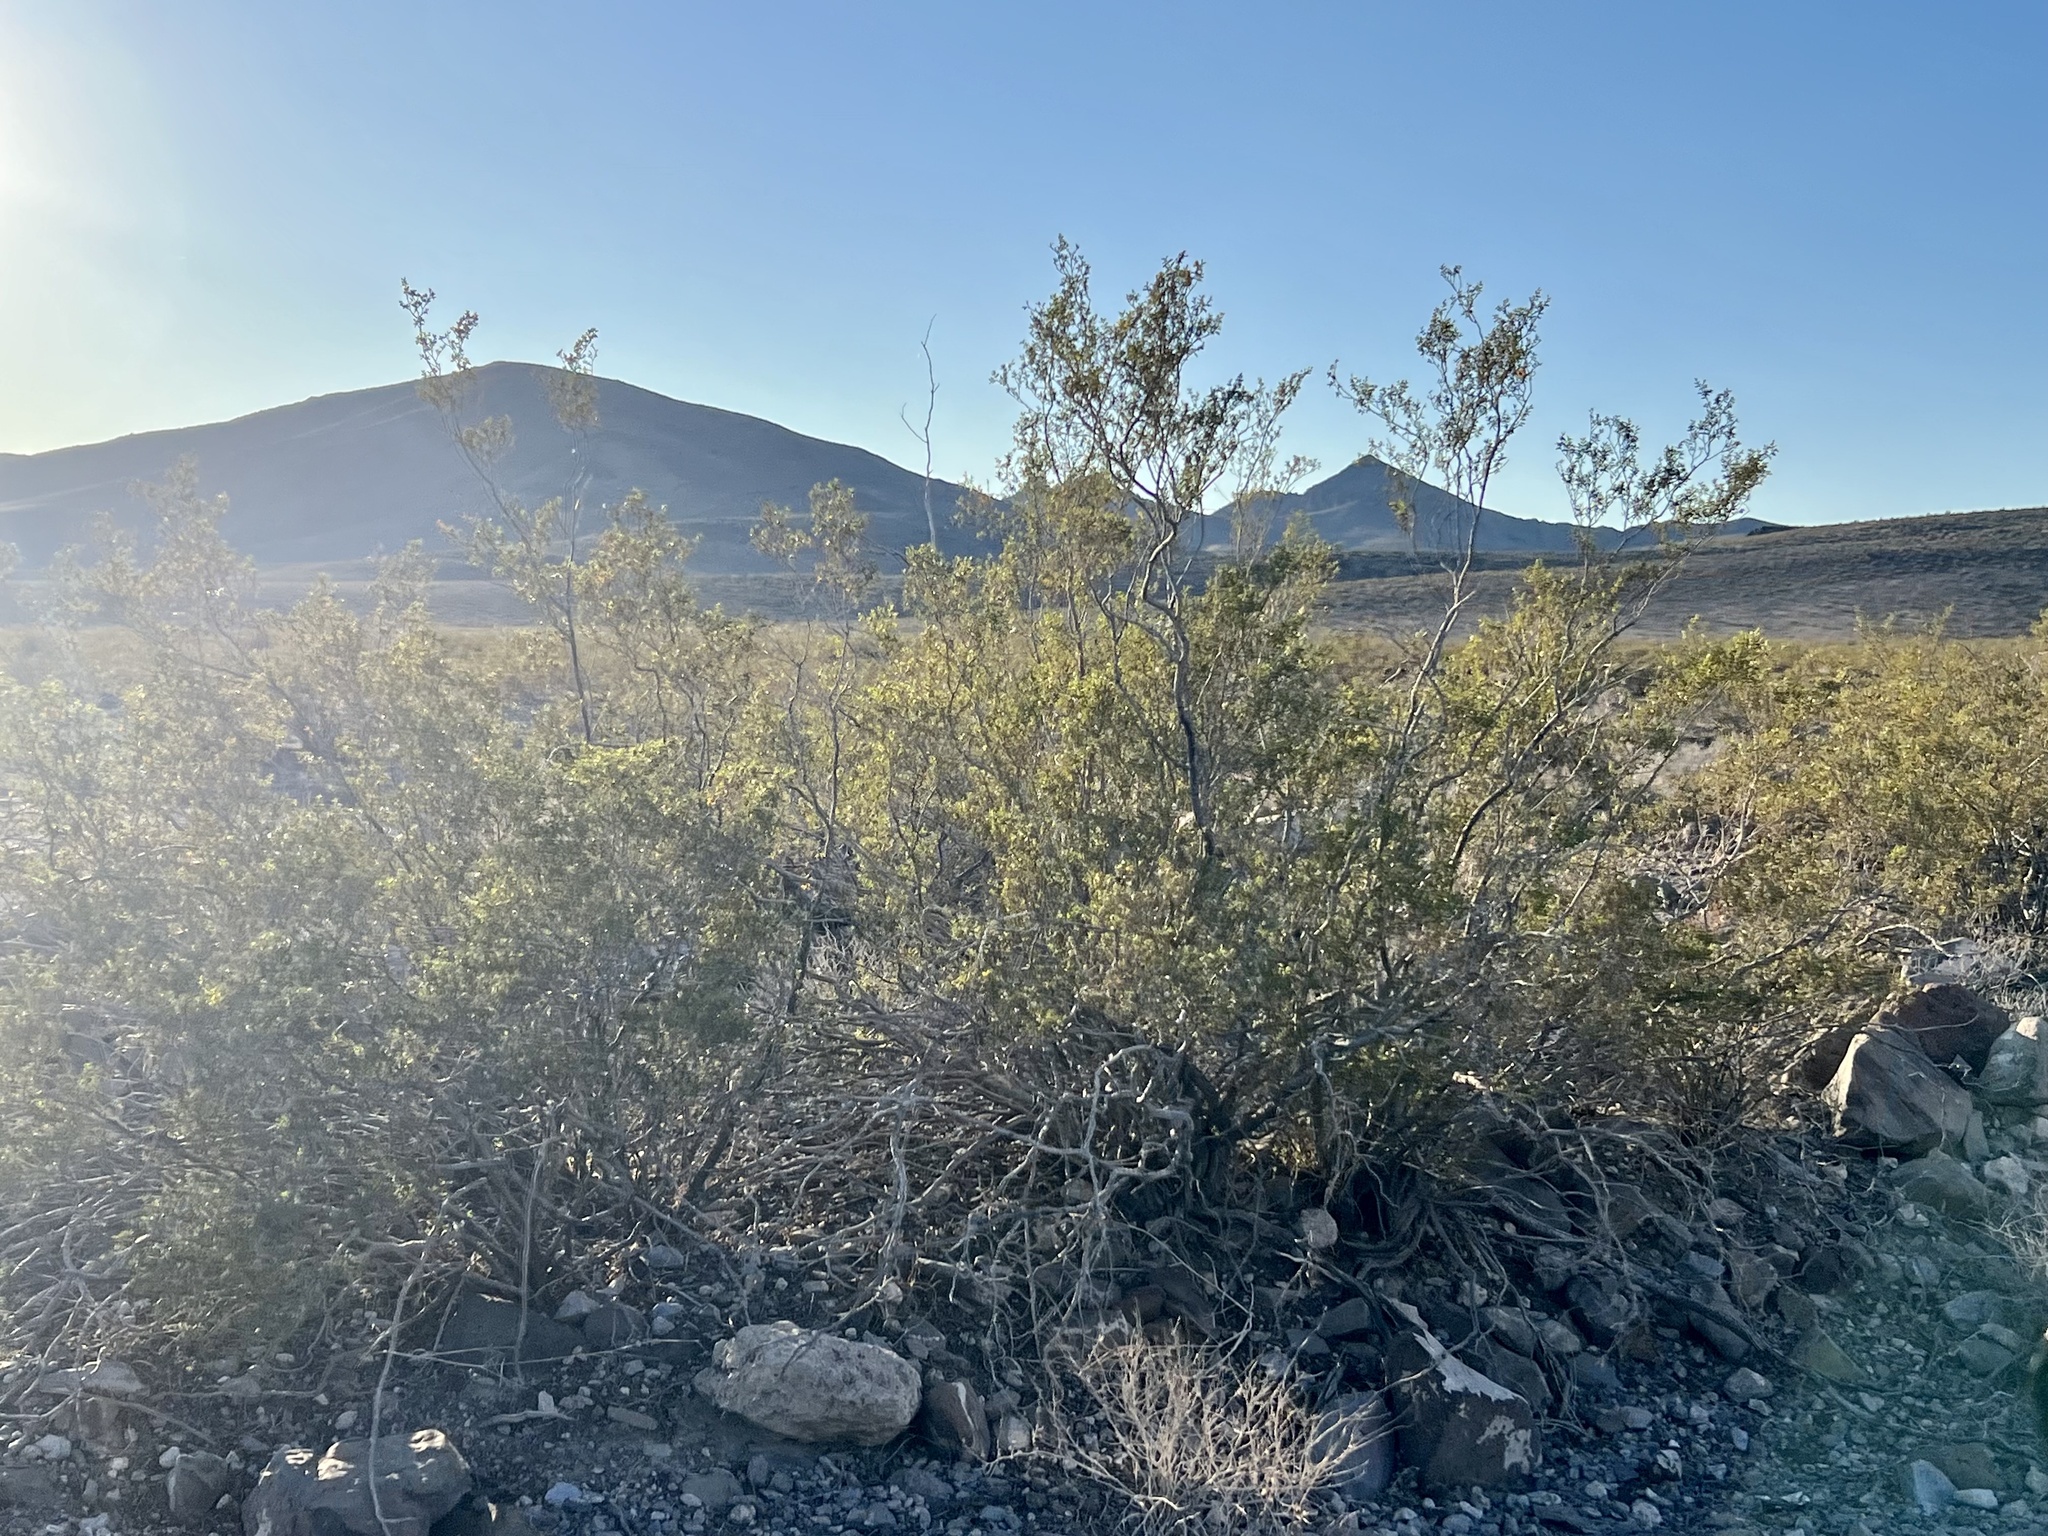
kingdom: Plantae
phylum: Tracheophyta
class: Magnoliopsida
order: Zygophyllales
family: Zygophyllaceae
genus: Larrea
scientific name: Larrea tridentata
